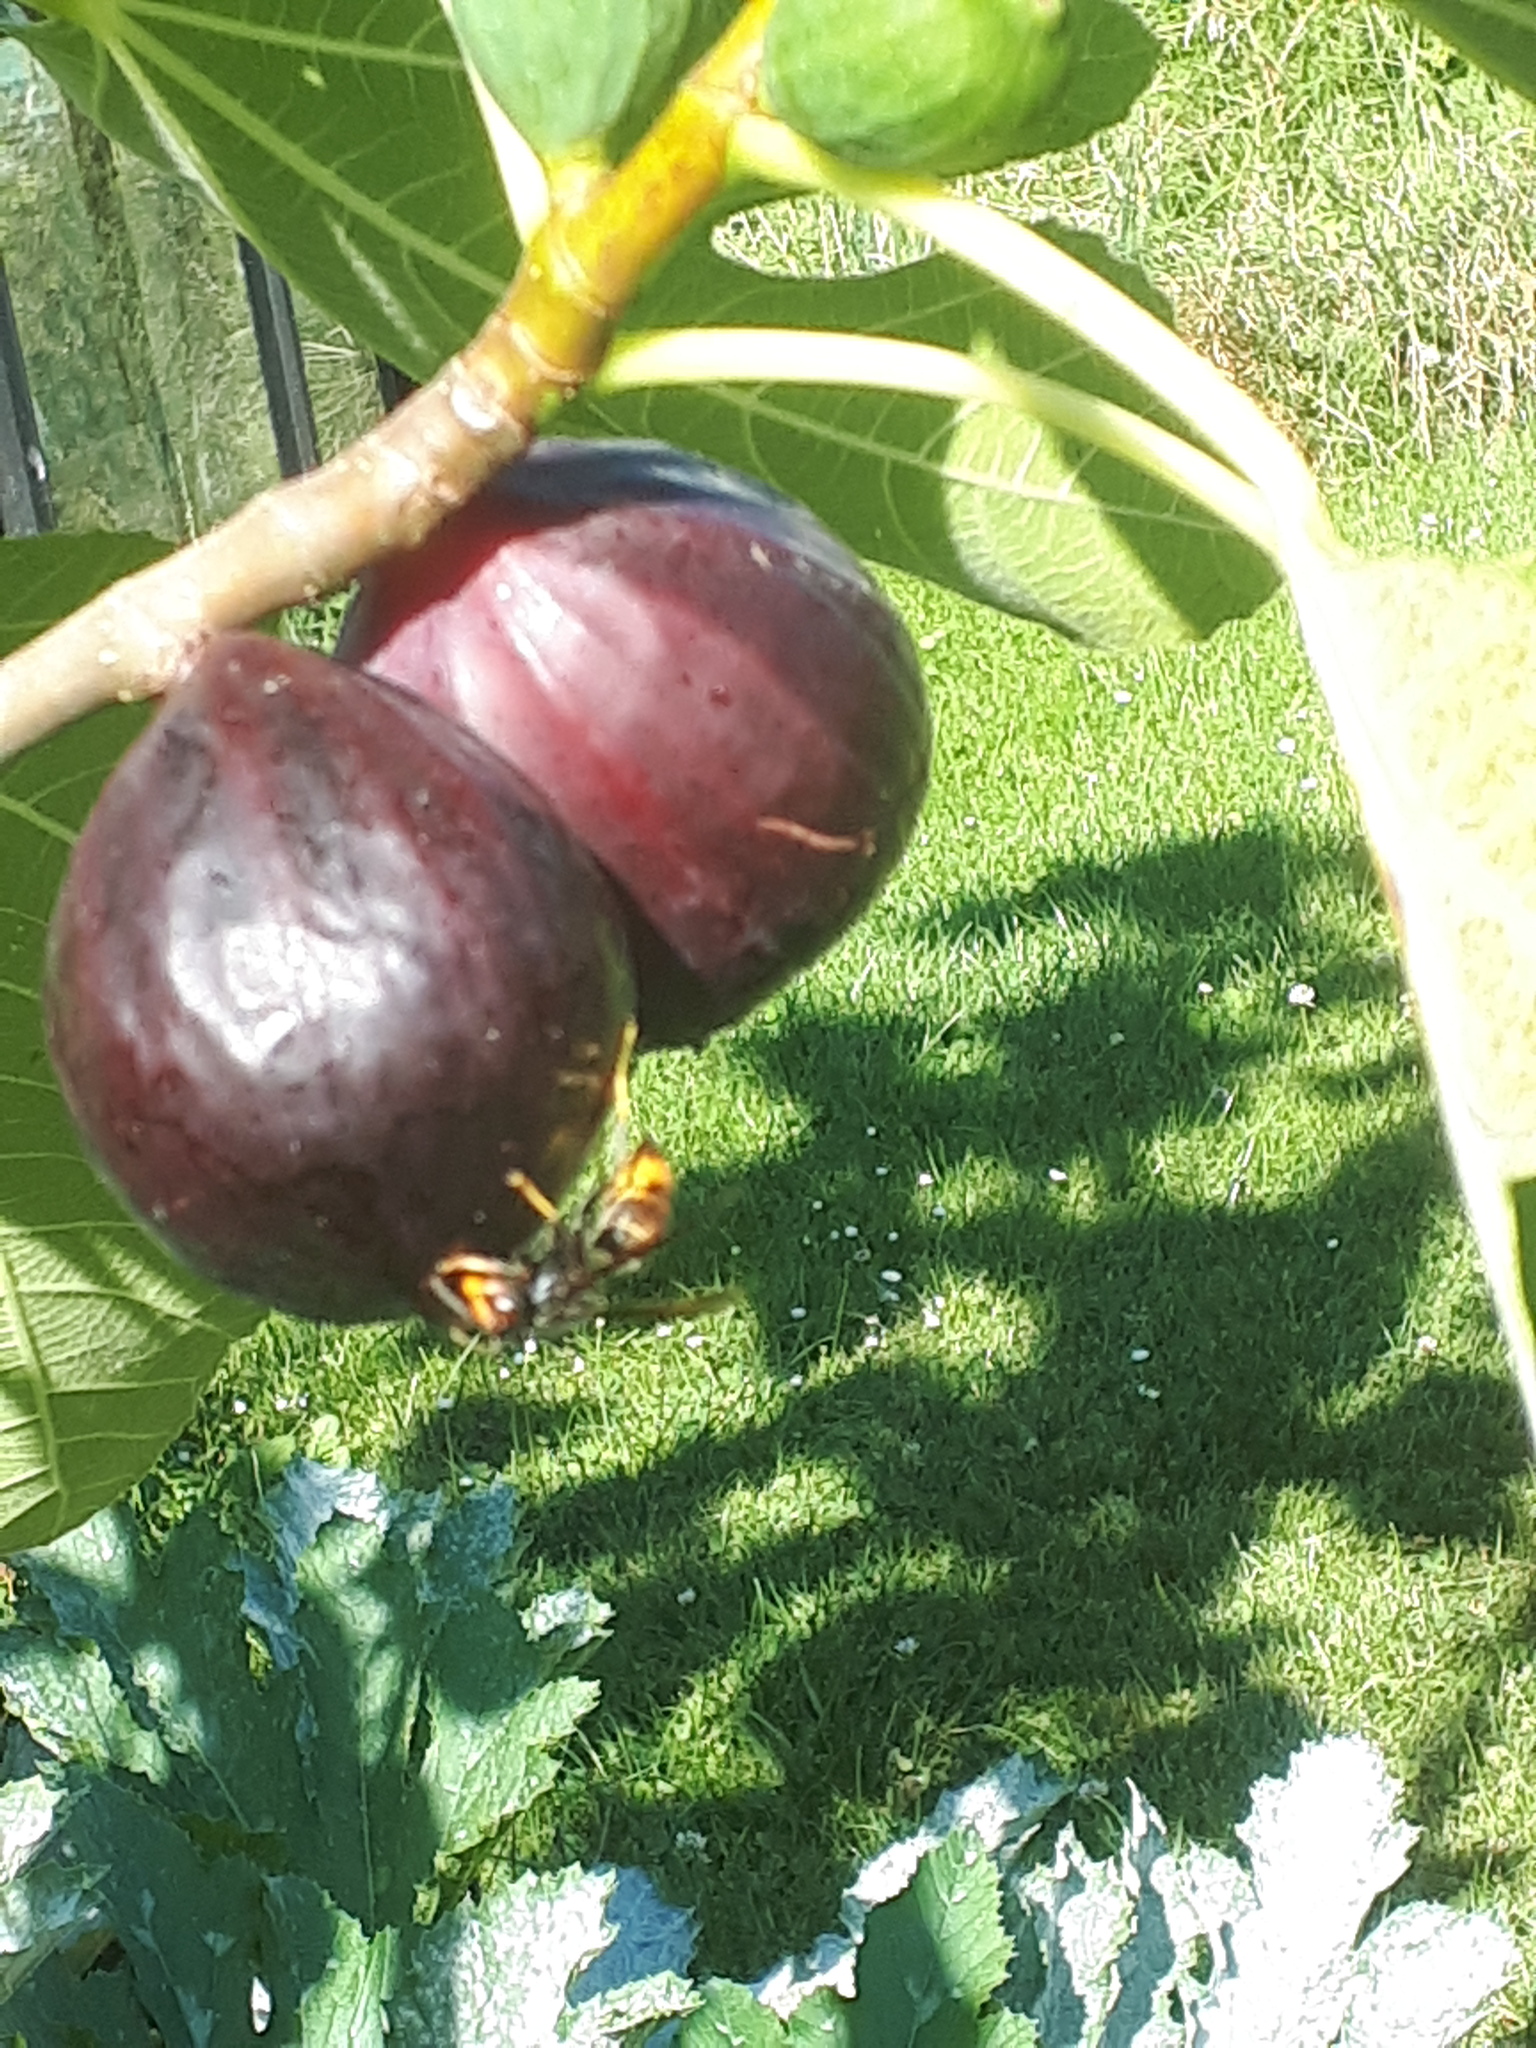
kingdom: Animalia
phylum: Arthropoda
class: Insecta
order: Hymenoptera
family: Vespidae
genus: Vespa
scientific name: Vespa velutina
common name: Asian hornet
